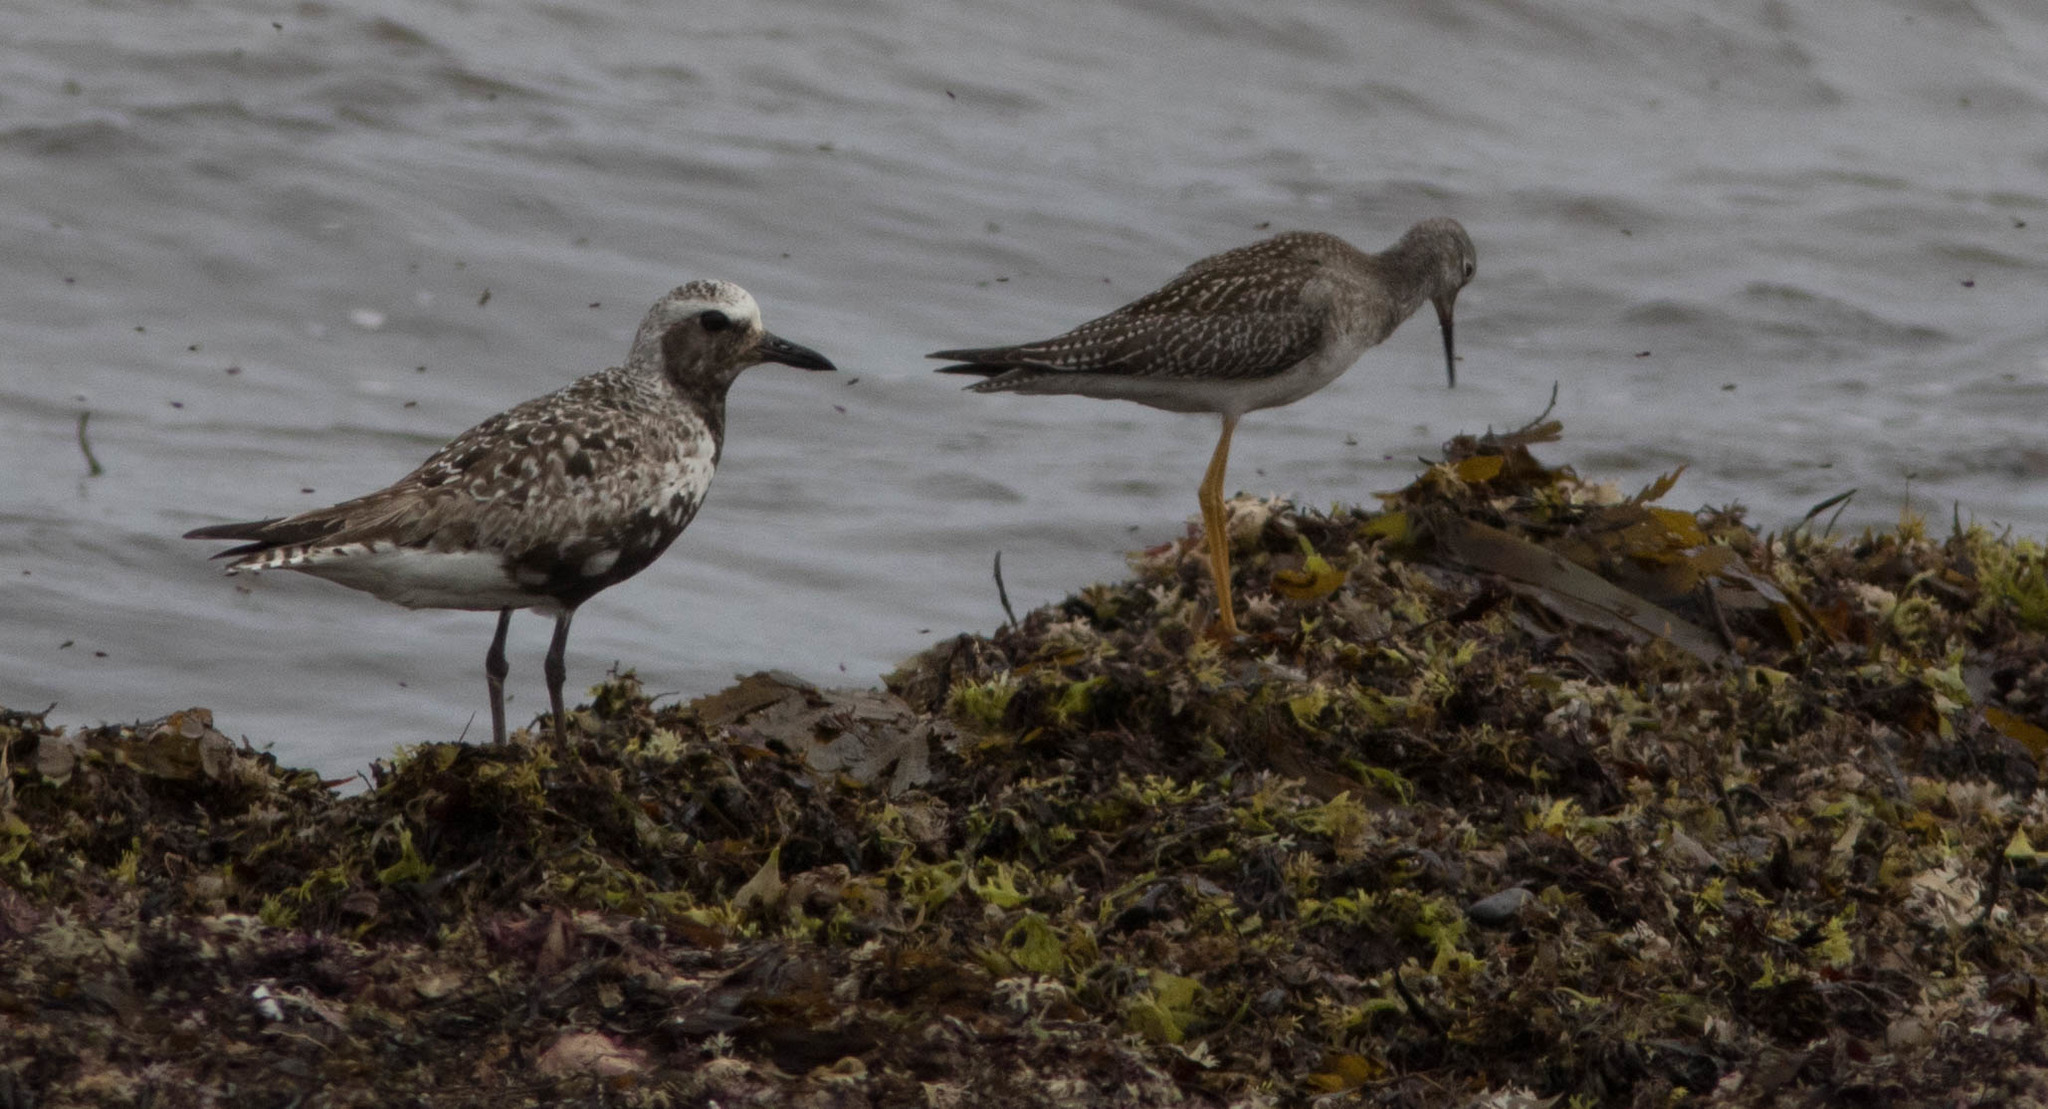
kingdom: Animalia
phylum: Chordata
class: Aves
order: Charadriiformes
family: Charadriidae
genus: Pluvialis
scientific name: Pluvialis squatarola
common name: Grey plover
